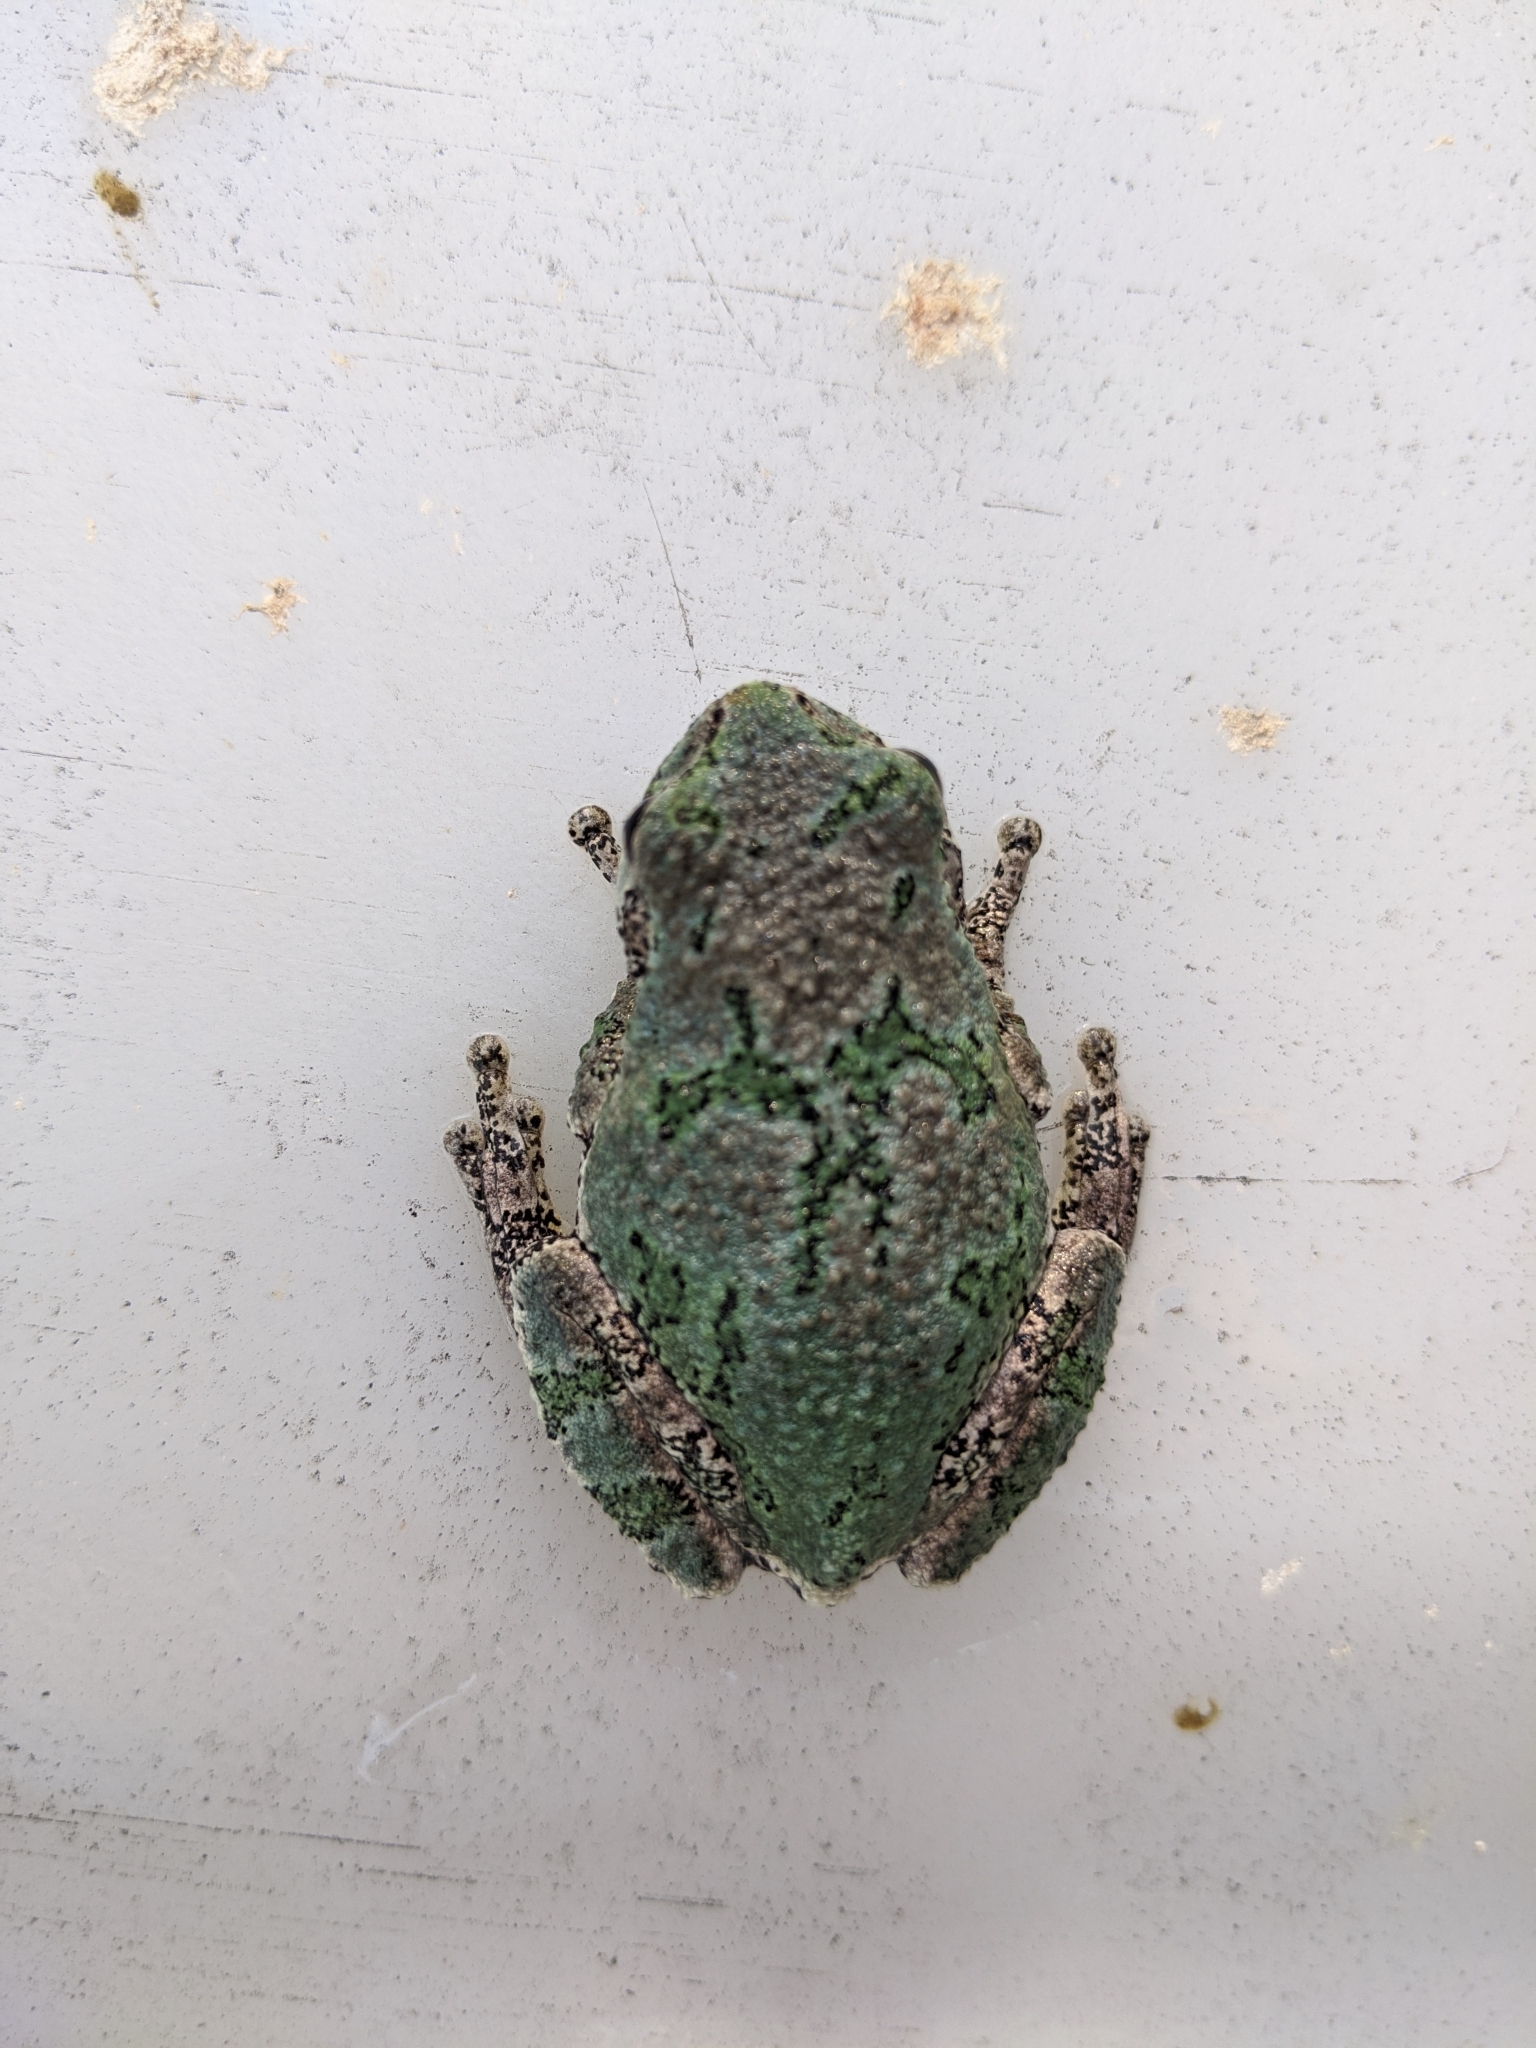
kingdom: Animalia
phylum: Chordata
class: Amphibia
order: Anura
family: Hylidae
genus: Dryophytes
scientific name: Dryophytes versicolor
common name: Gray treefrog
